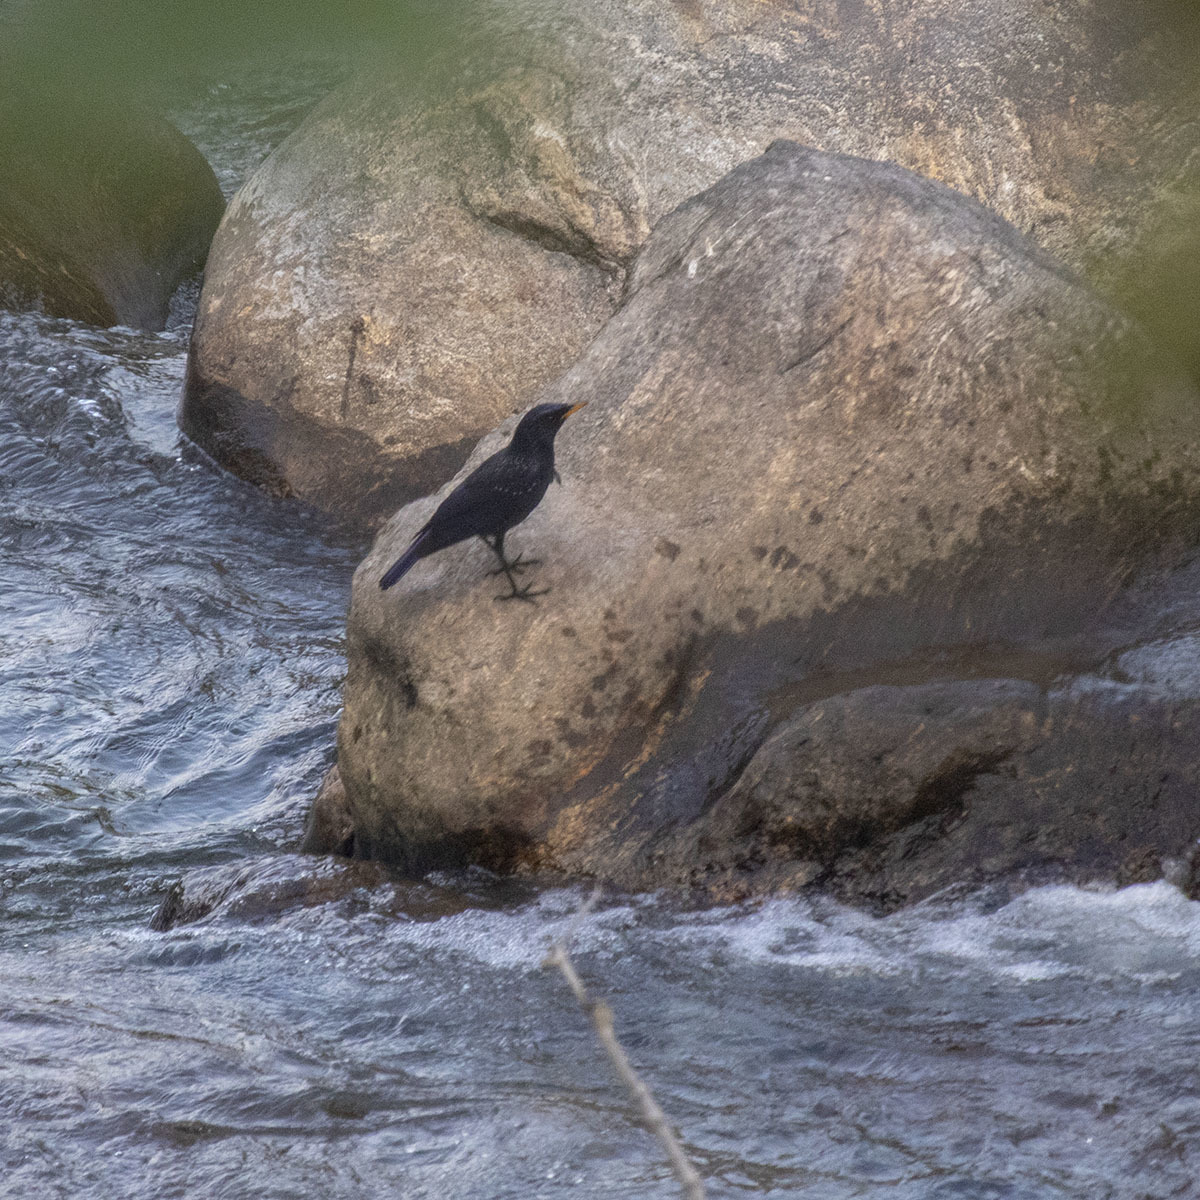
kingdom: Animalia
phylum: Chordata
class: Aves
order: Passeriformes
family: Muscicapidae
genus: Myophonus
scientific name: Myophonus caeruleus
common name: Blue whistling-thrush
